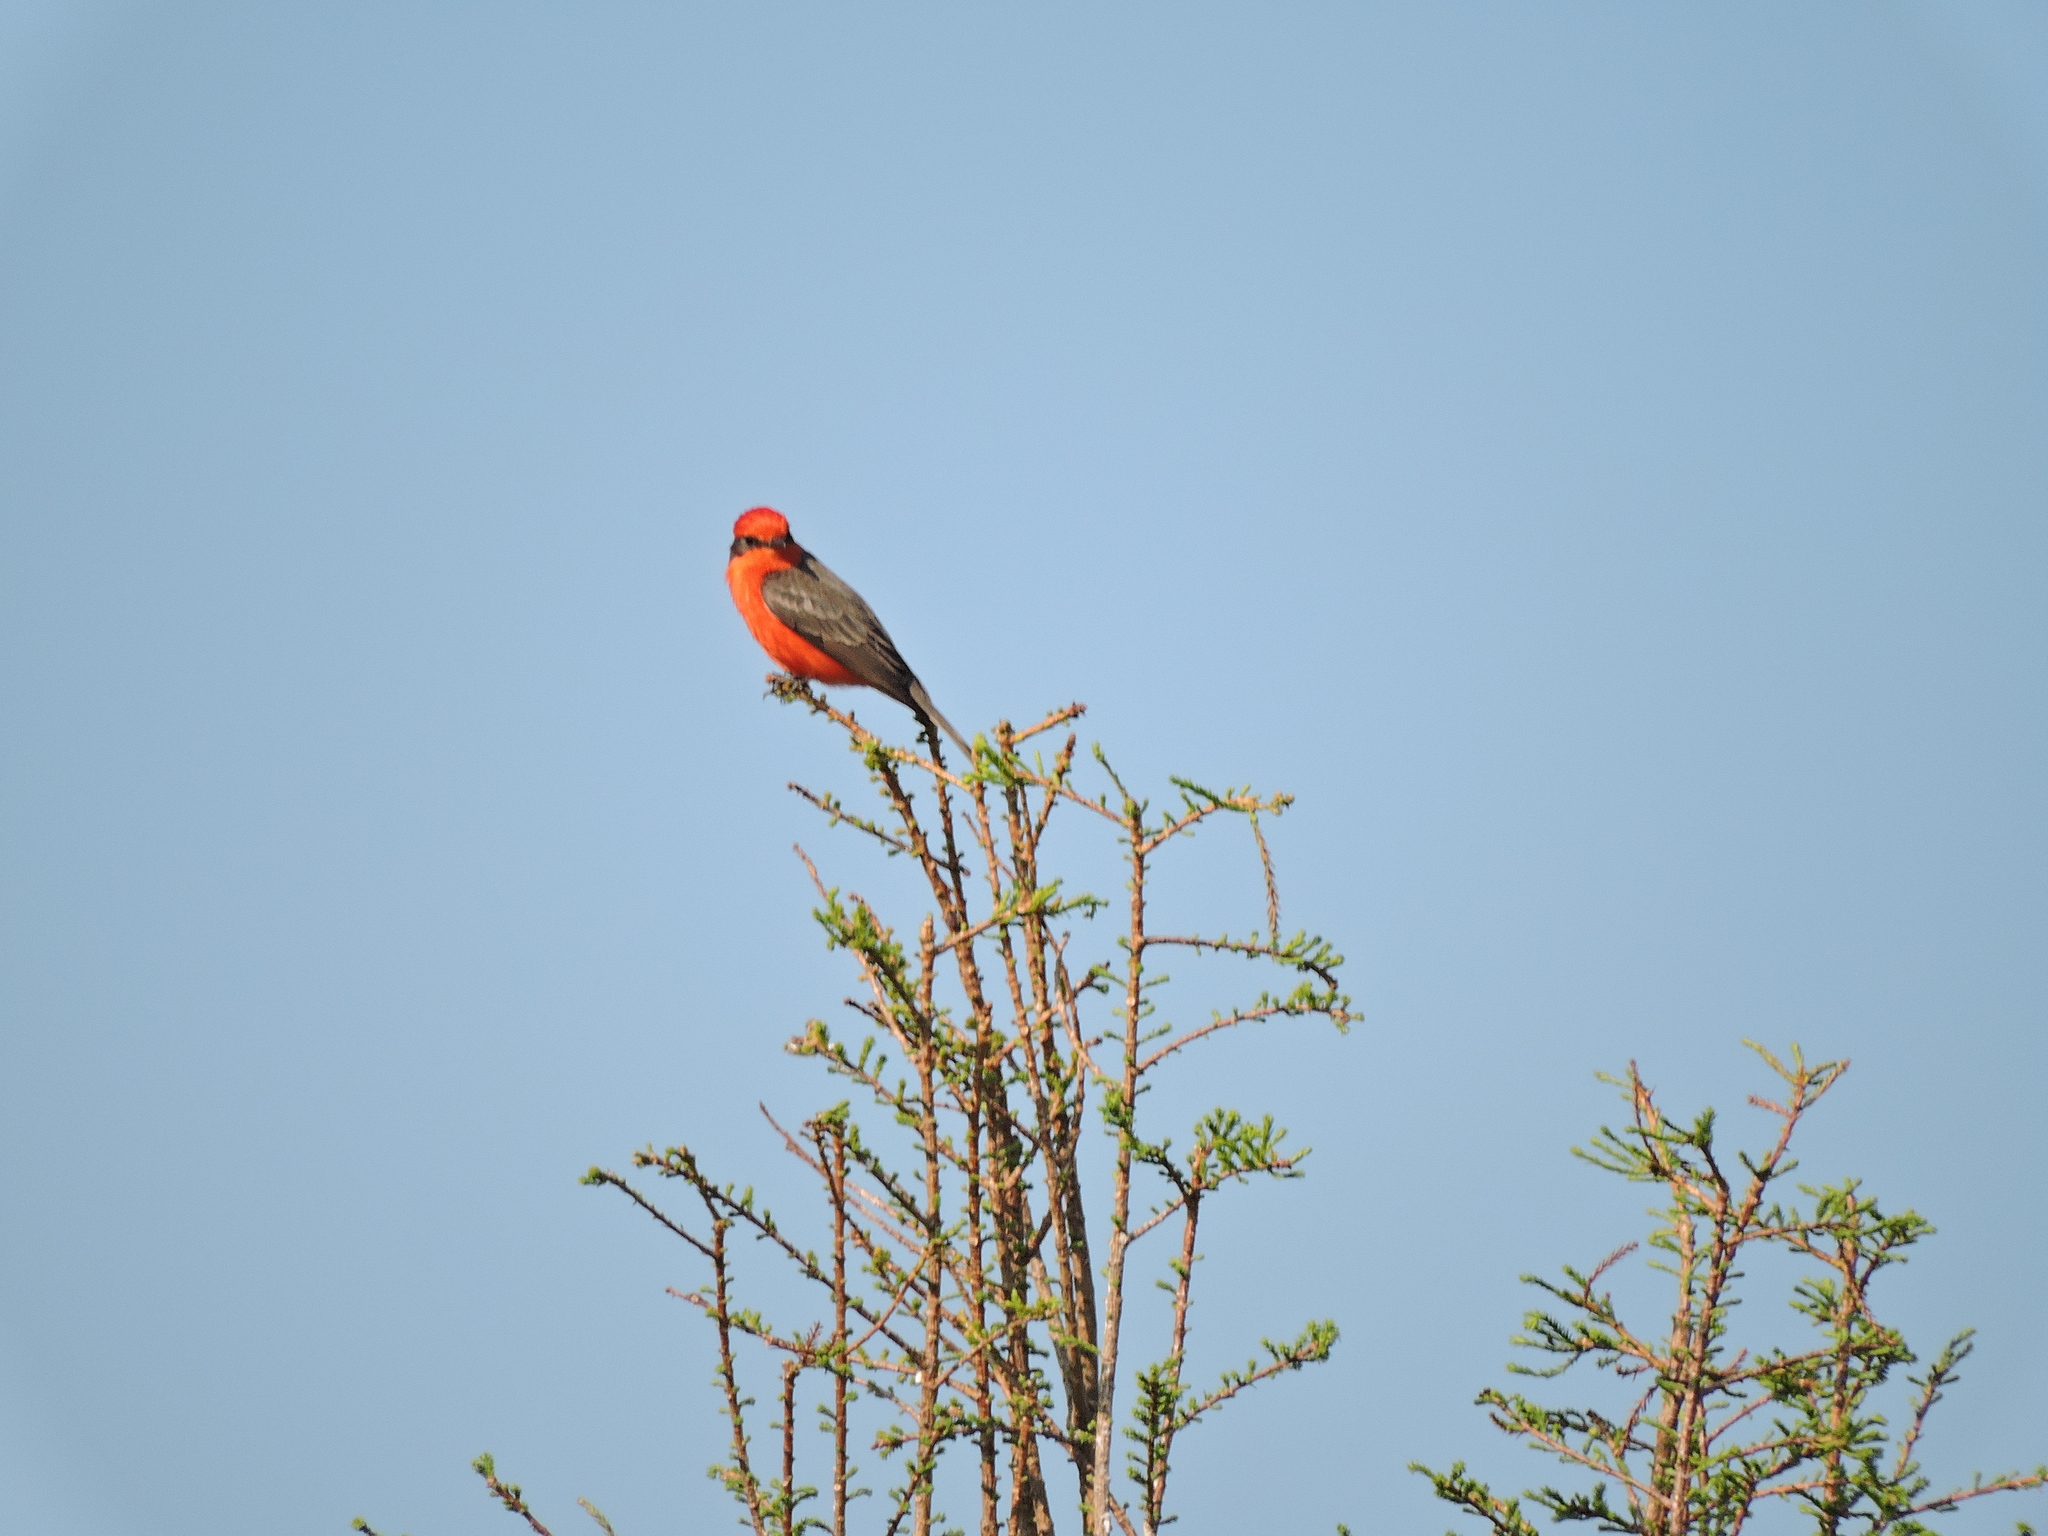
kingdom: Animalia
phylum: Chordata
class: Aves
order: Passeriformes
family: Tyrannidae
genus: Pyrocephalus
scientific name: Pyrocephalus rubinus
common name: Vermilion flycatcher
